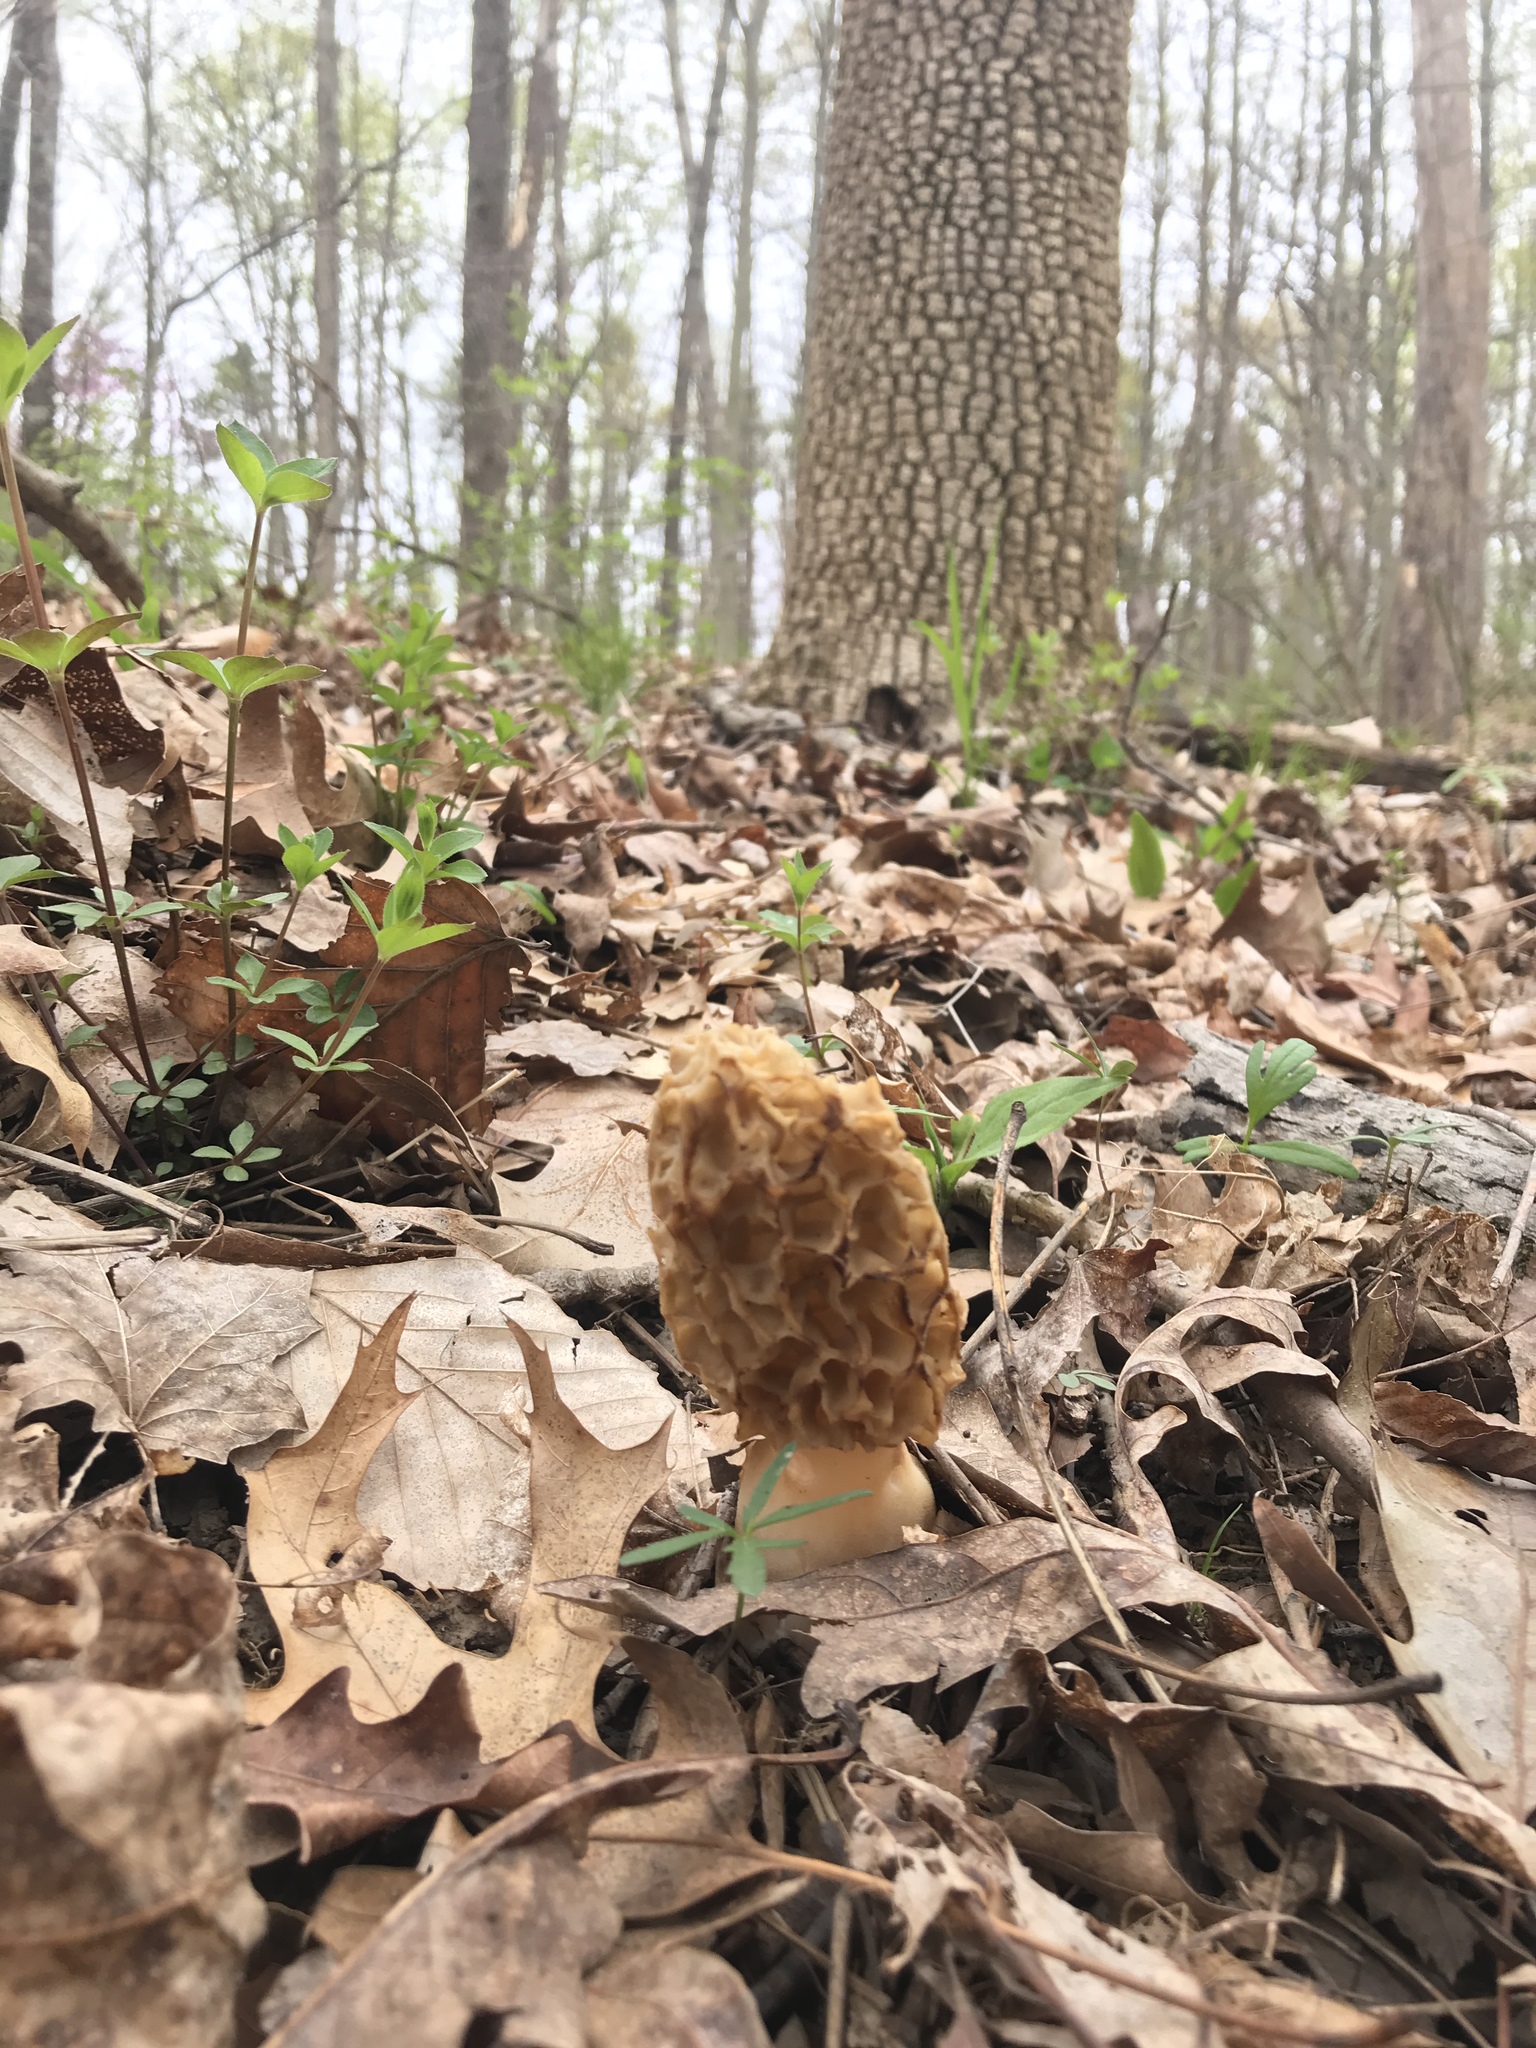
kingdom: Fungi
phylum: Ascomycota
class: Pezizomycetes
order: Pezizales
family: Morchellaceae
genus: Morchella
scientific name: Morchella americana
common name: White morel
